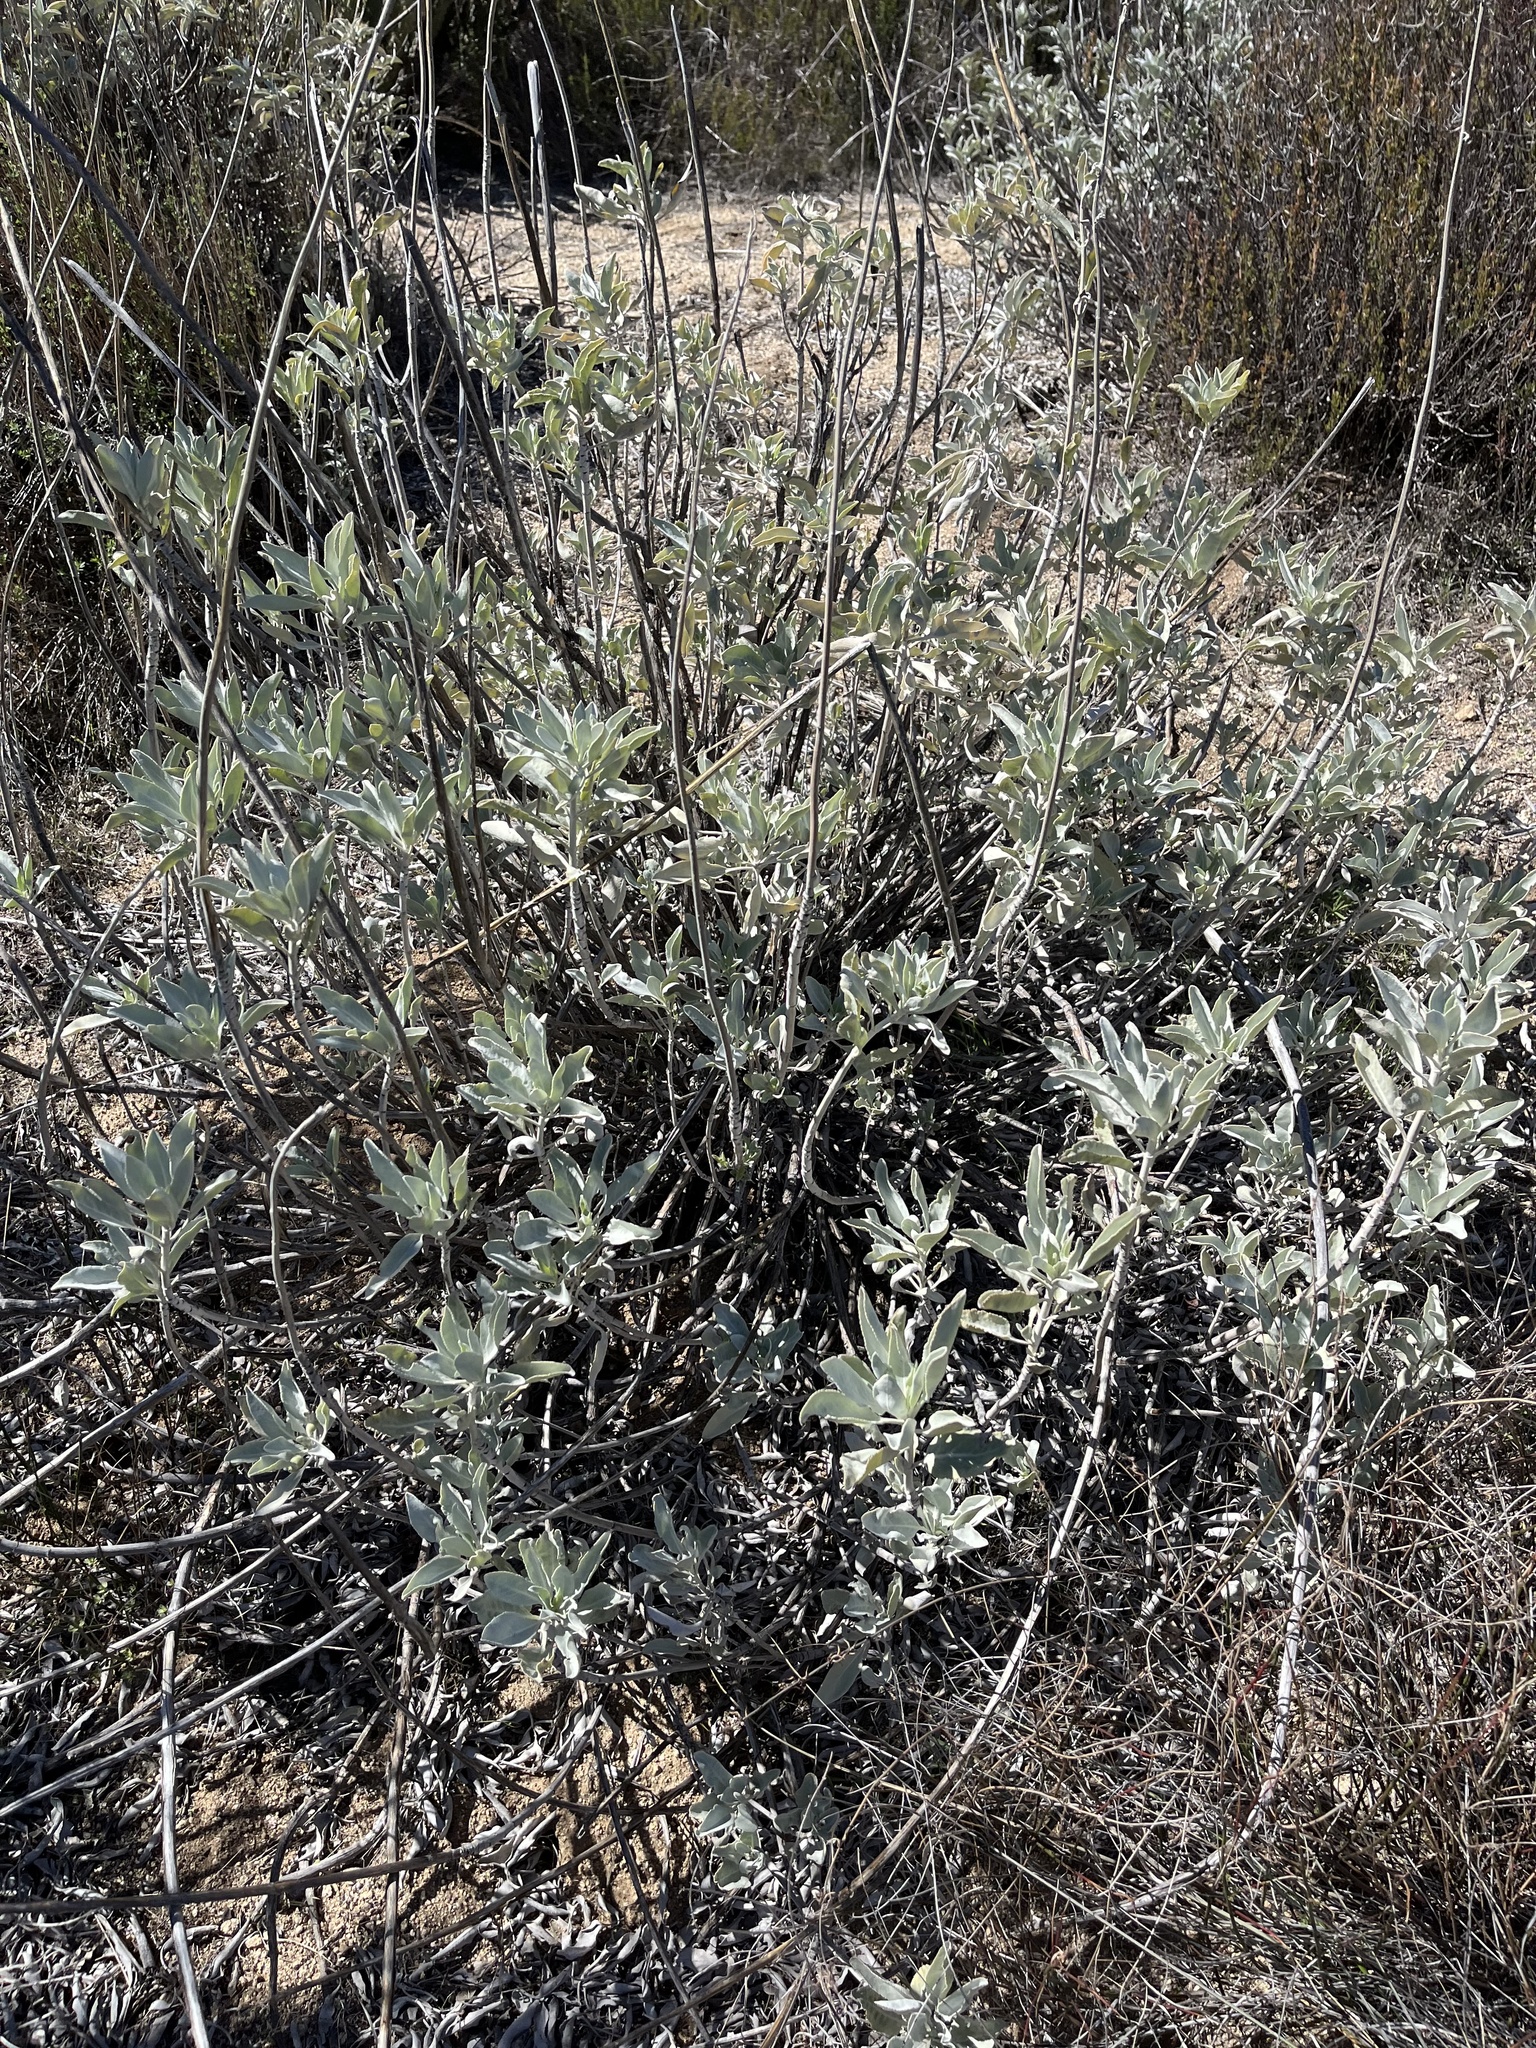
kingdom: Plantae
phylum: Tracheophyta
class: Magnoliopsida
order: Lamiales
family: Lamiaceae
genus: Salvia
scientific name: Salvia apiana
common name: White sage
